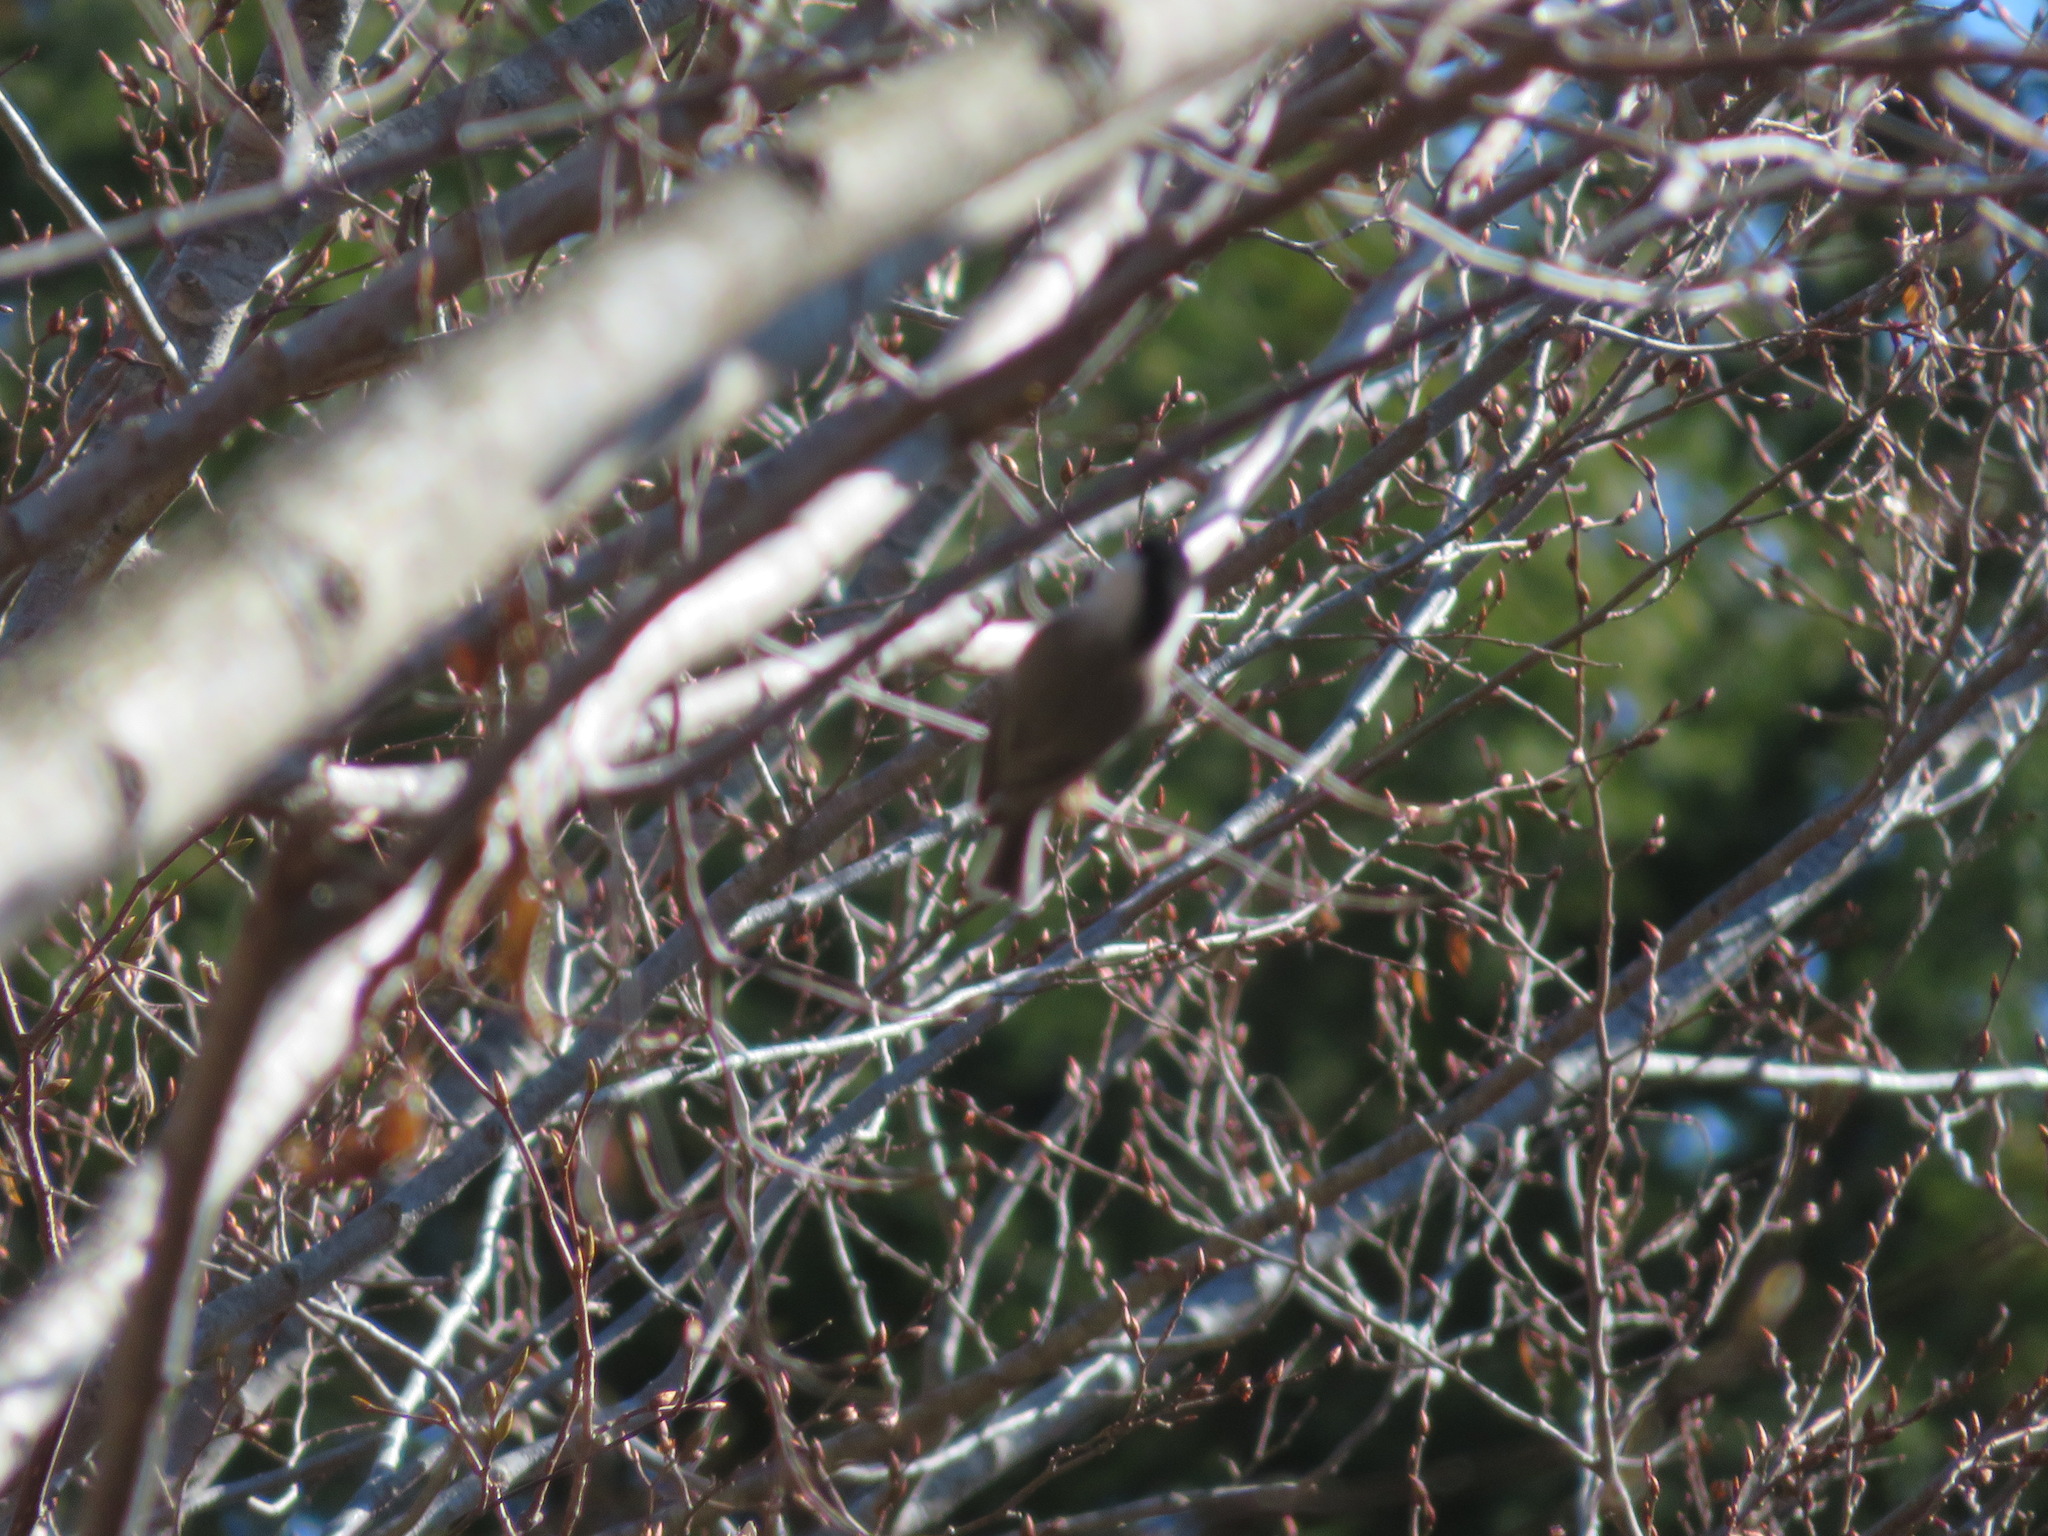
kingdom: Animalia
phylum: Chordata
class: Aves
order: Passeriformes
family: Paridae
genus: Poecile
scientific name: Poecile montanus
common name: Willow tit
